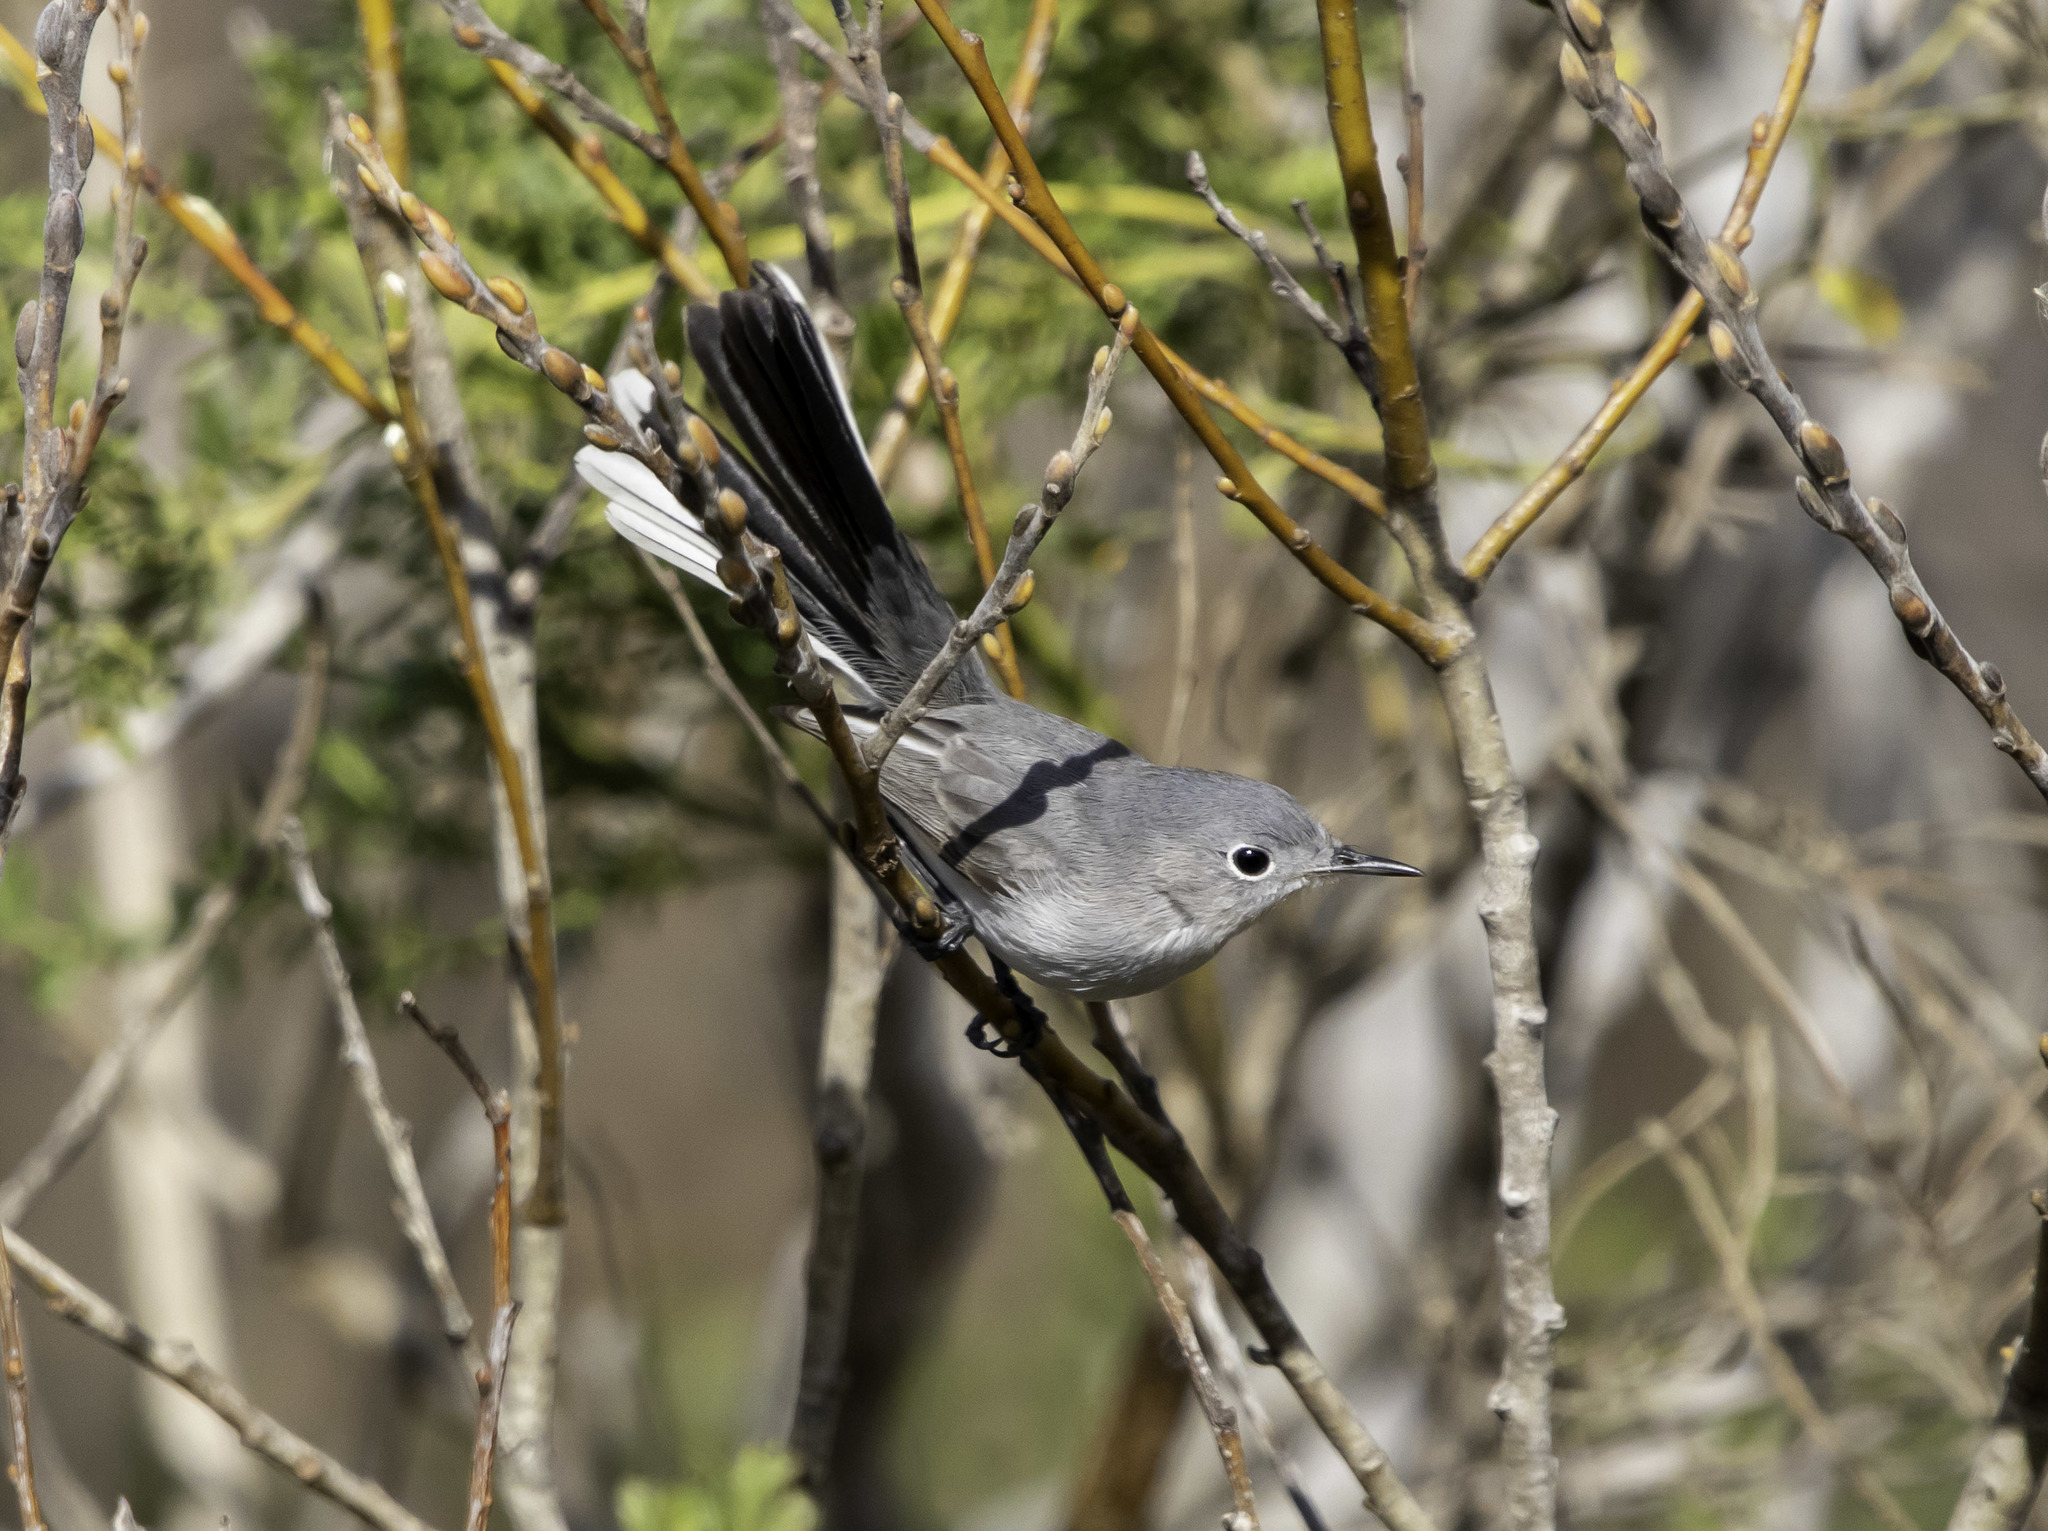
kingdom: Animalia
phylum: Chordata
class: Aves
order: Passeriformes
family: Polioptilidae
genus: Polioptila
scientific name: Polioptila caerulea
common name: Blue-gray gnatcatcher
